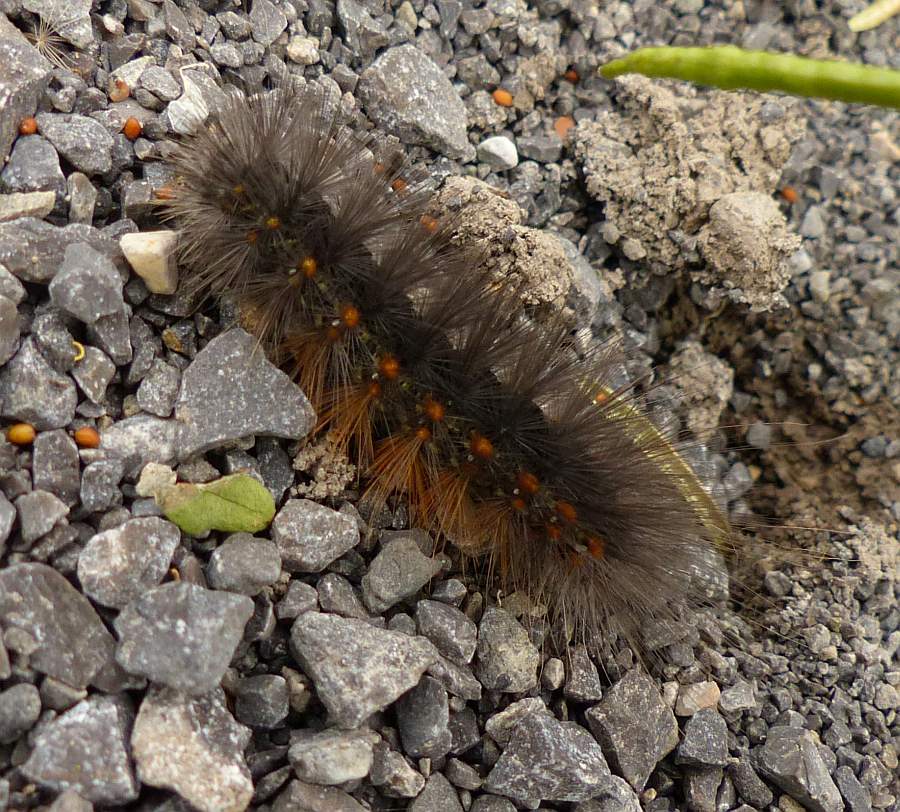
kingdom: Animalia
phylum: Arthropoda
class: Insecta
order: Lepidoptera
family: Erebidae
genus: Estigmene
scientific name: Estigmene acrea
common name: Salt marsh moth
